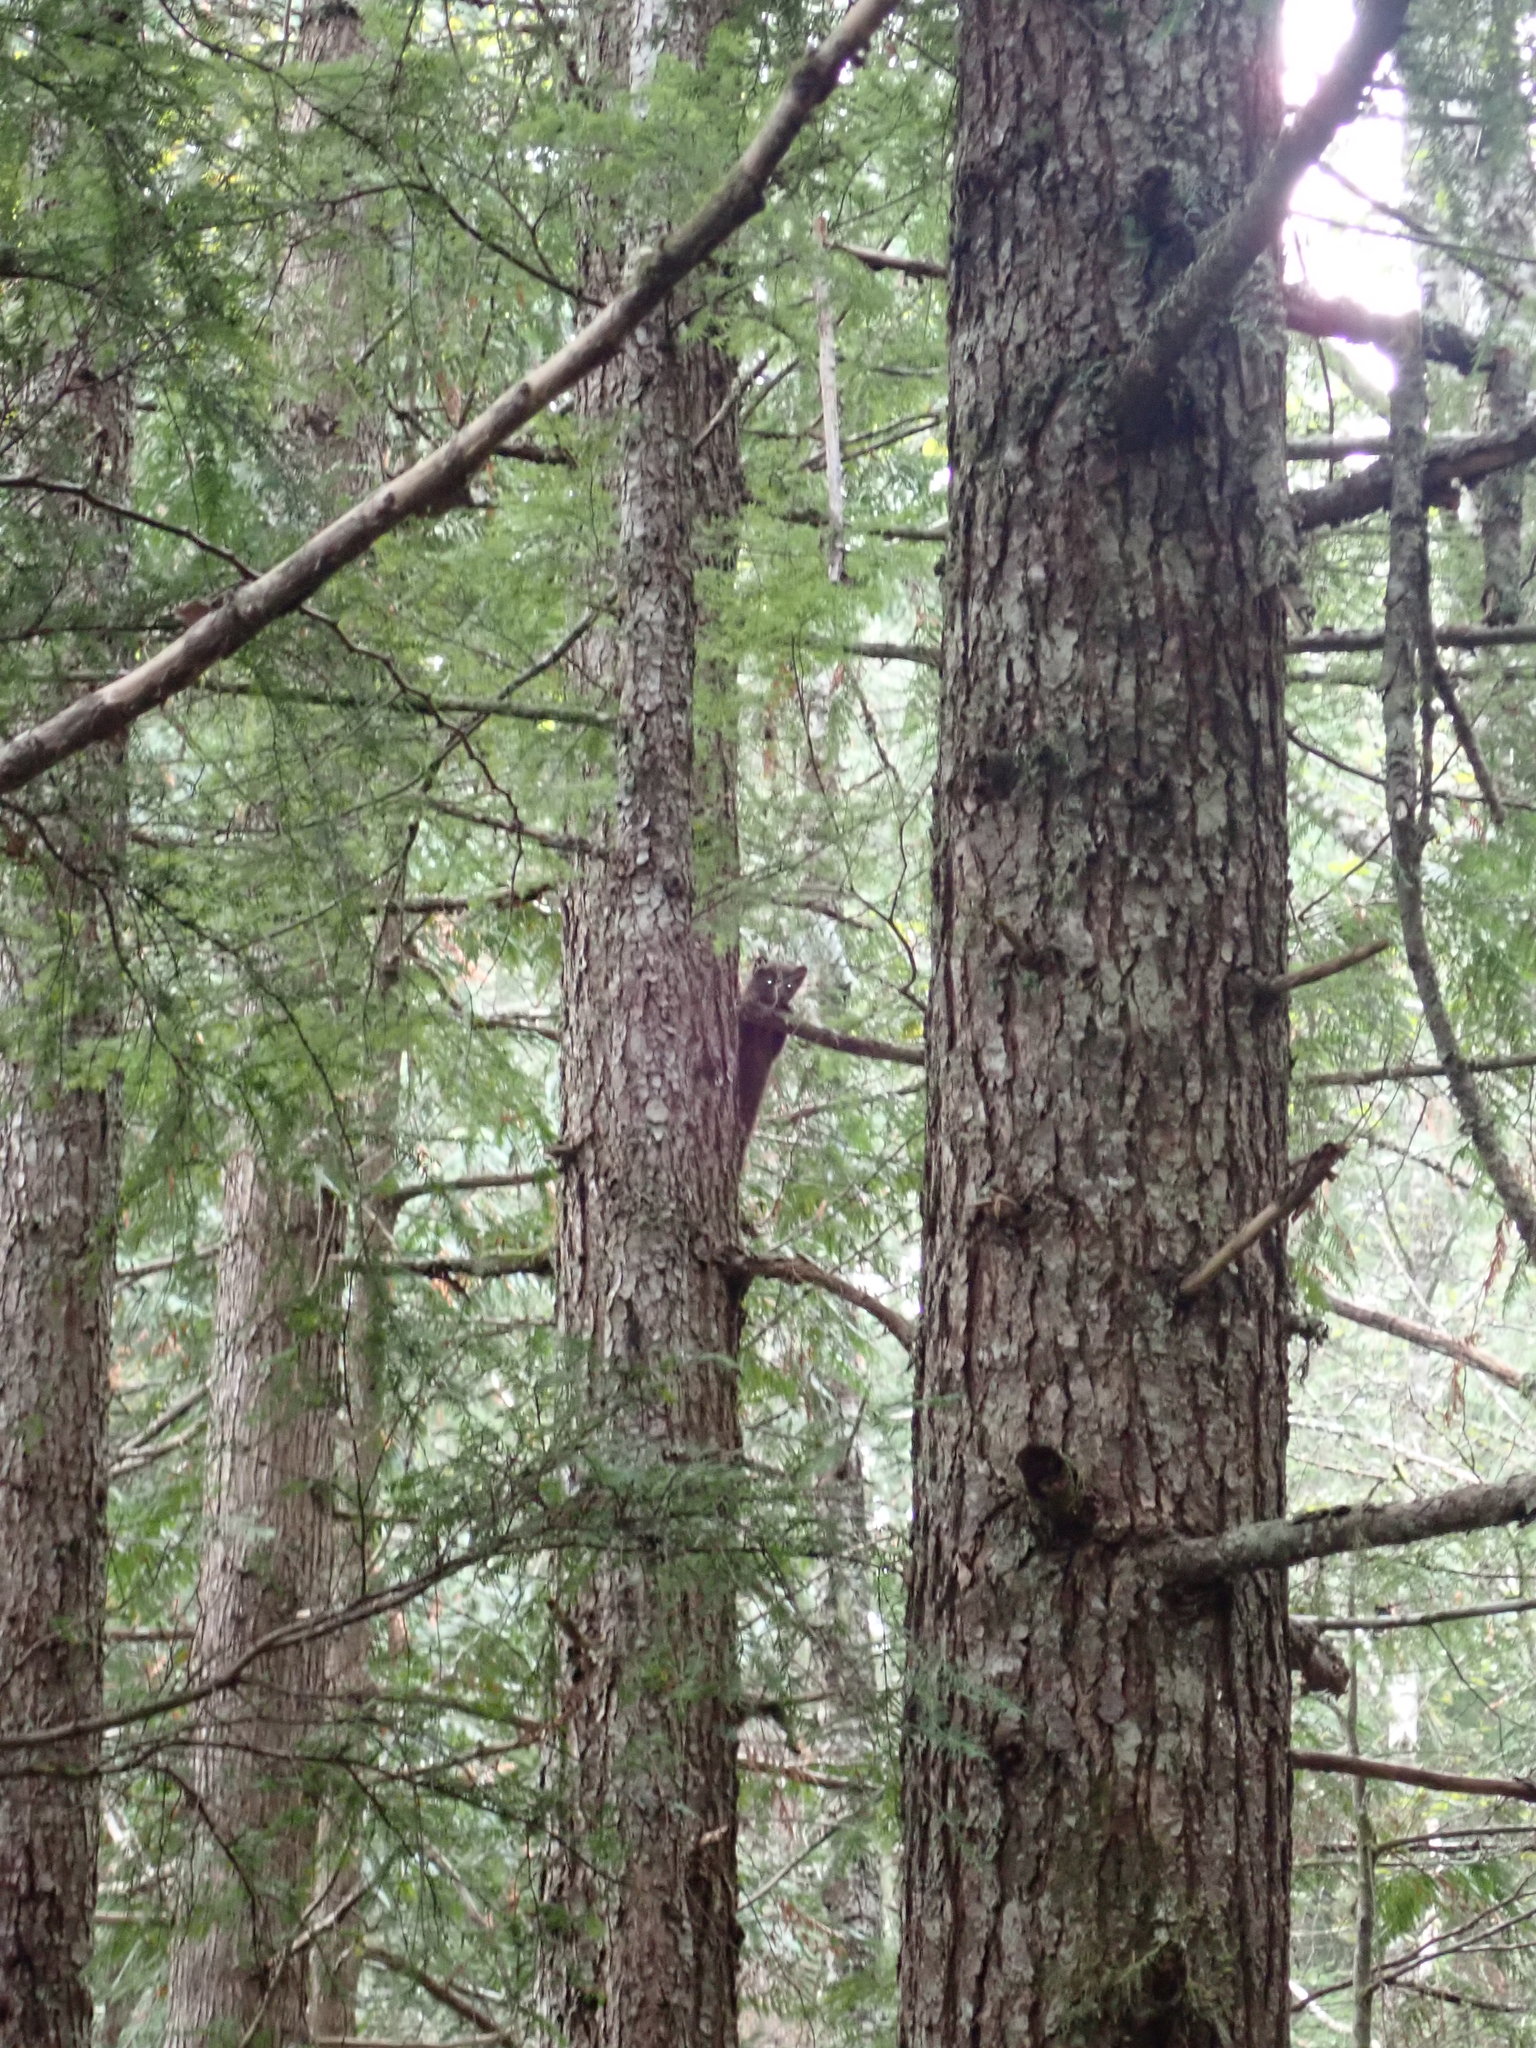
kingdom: Animalia
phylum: Chordata
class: Mammalia
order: Carnivora
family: Mustelidae
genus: Martes
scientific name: Martes caurina
